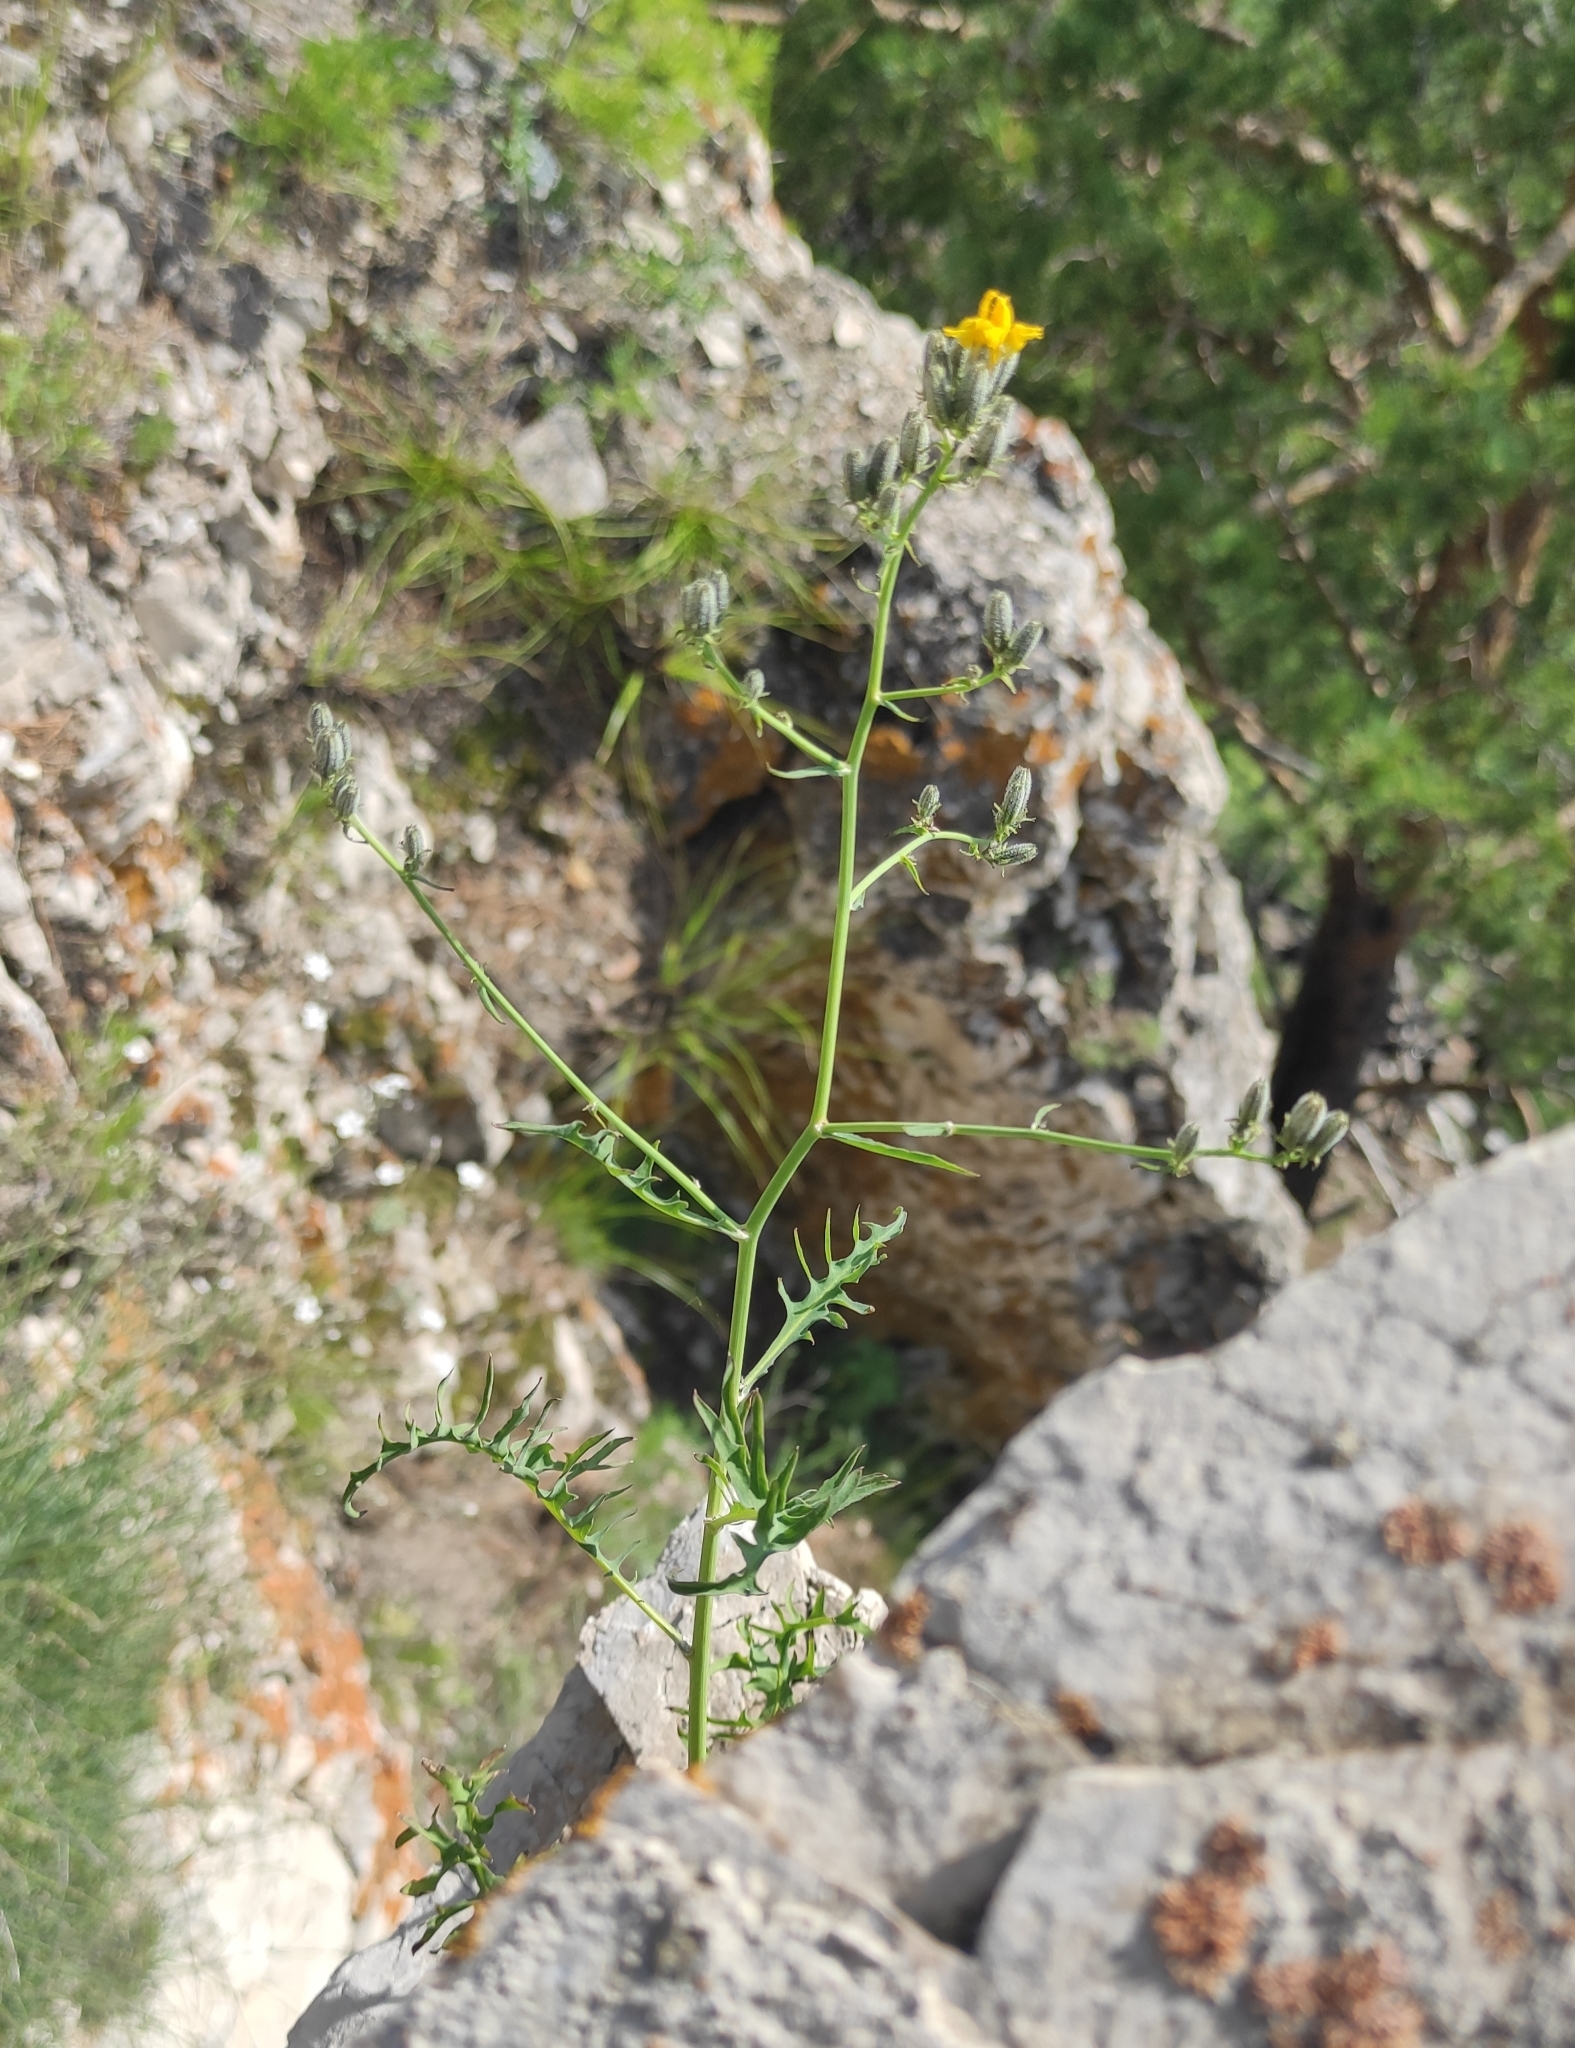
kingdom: Plantae
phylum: Tracheophyta
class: Magnoliopsida
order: Asterales
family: Asteraceae
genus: Crepidiastrum
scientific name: Crepidiastrum tenuifolium
